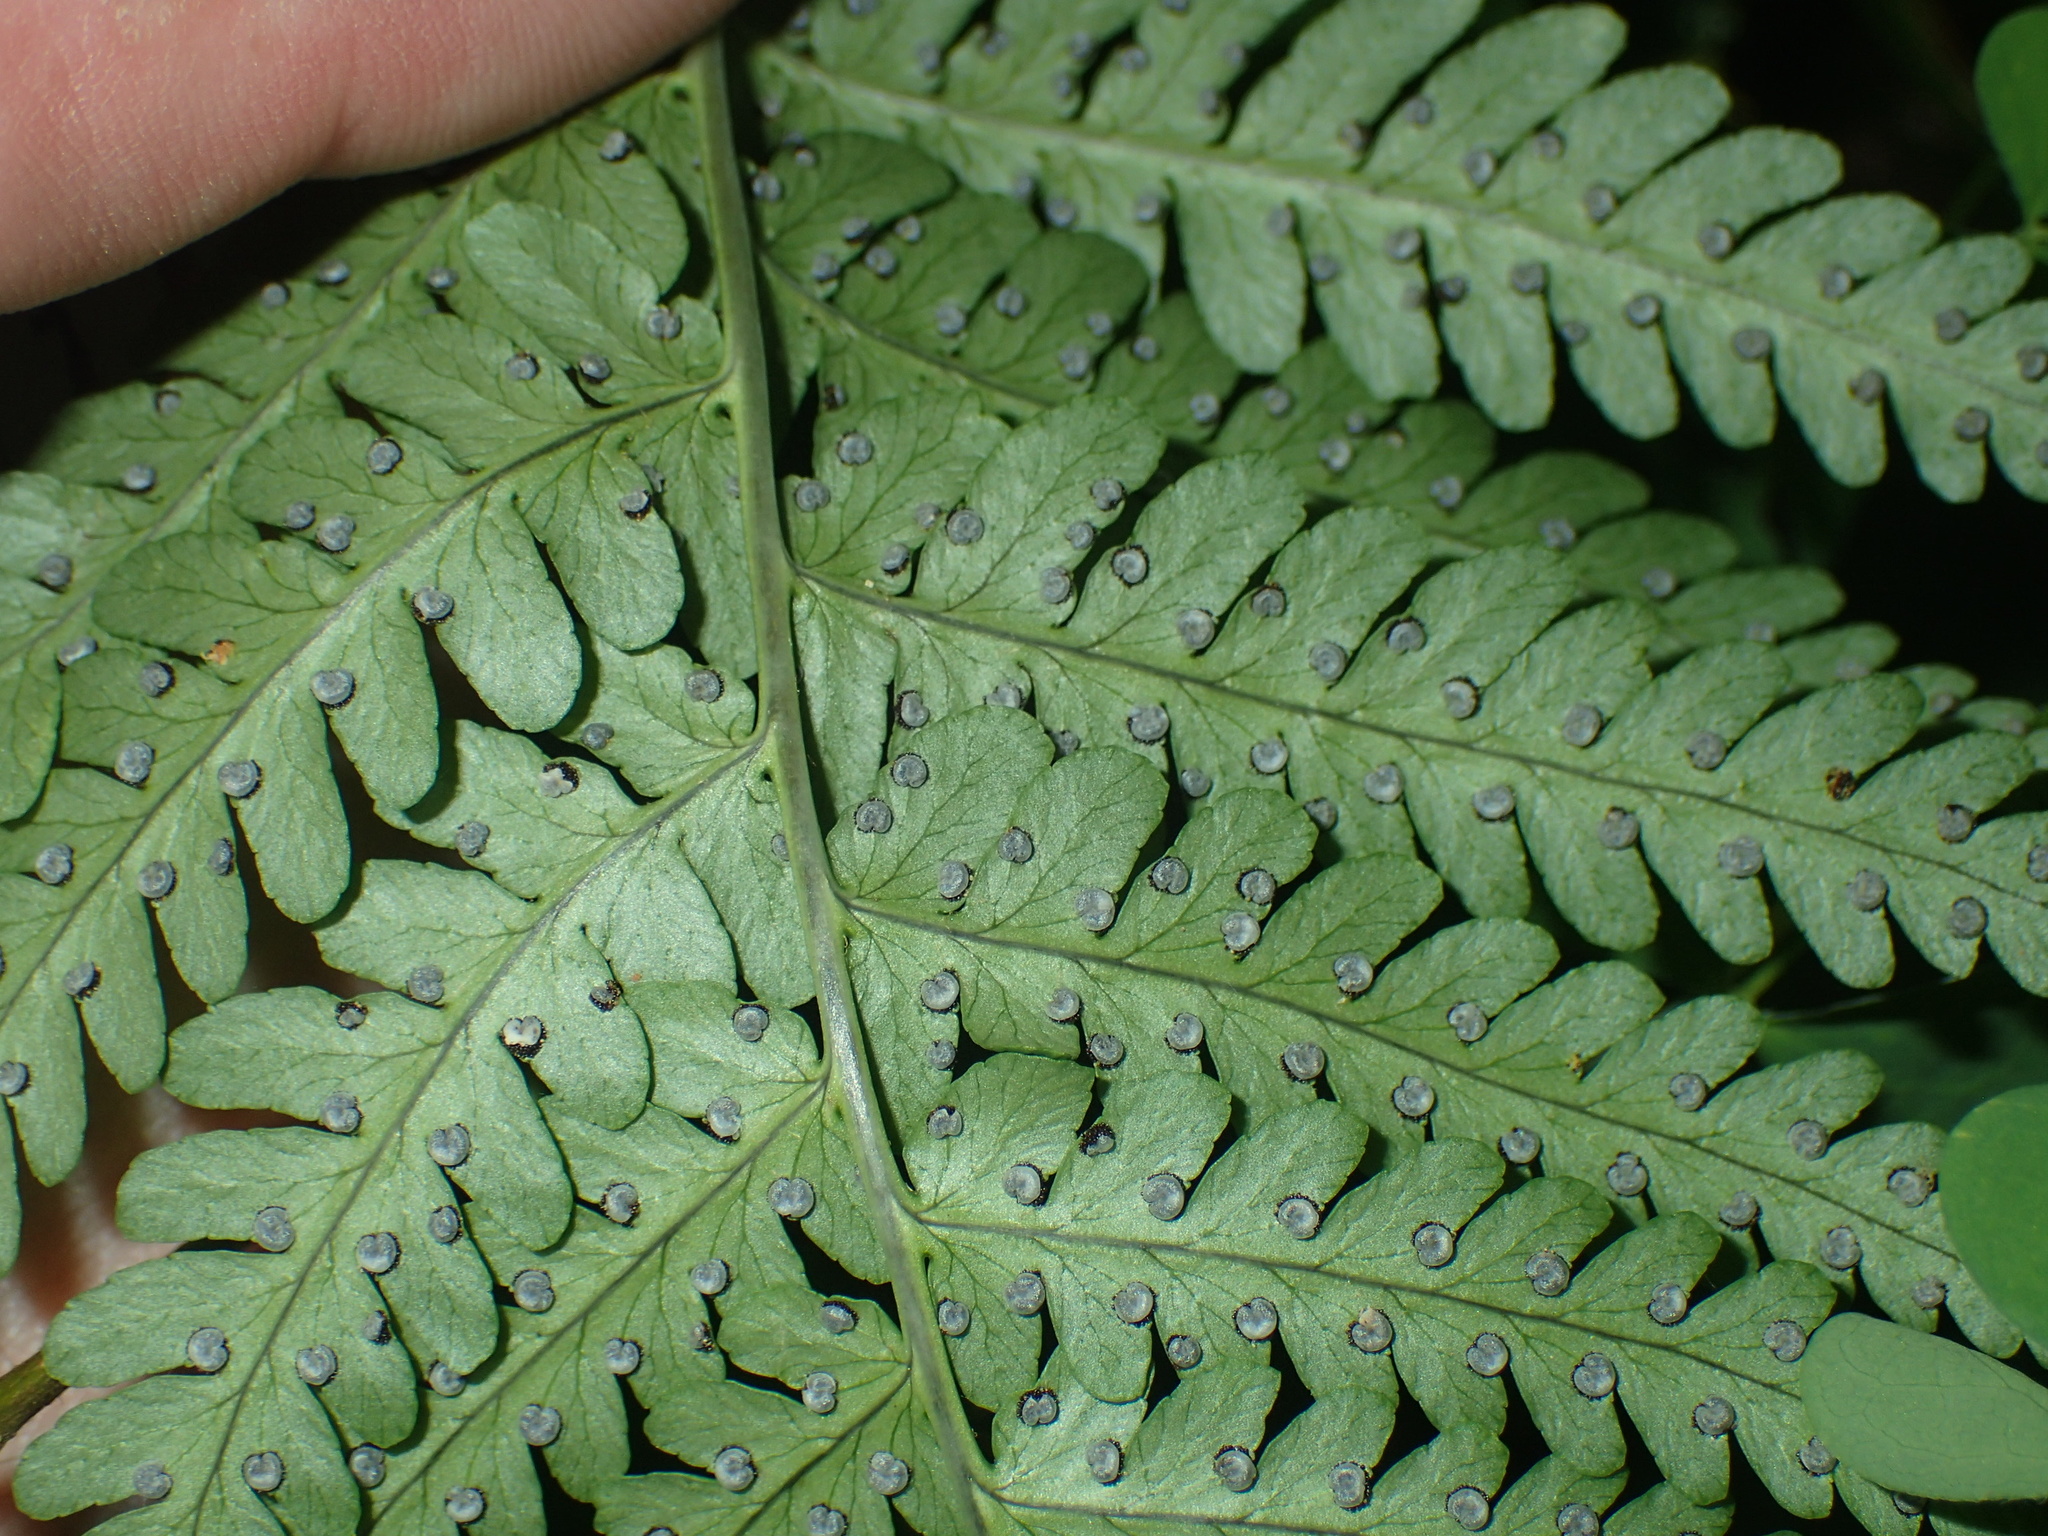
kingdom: Plantae
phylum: Tracheophyta
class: Polypodiopsida
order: Polypodiales
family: Dryopteridaceae
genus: Dryopteris
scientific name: Dryopteris marginalis
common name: Marginal wood fern
